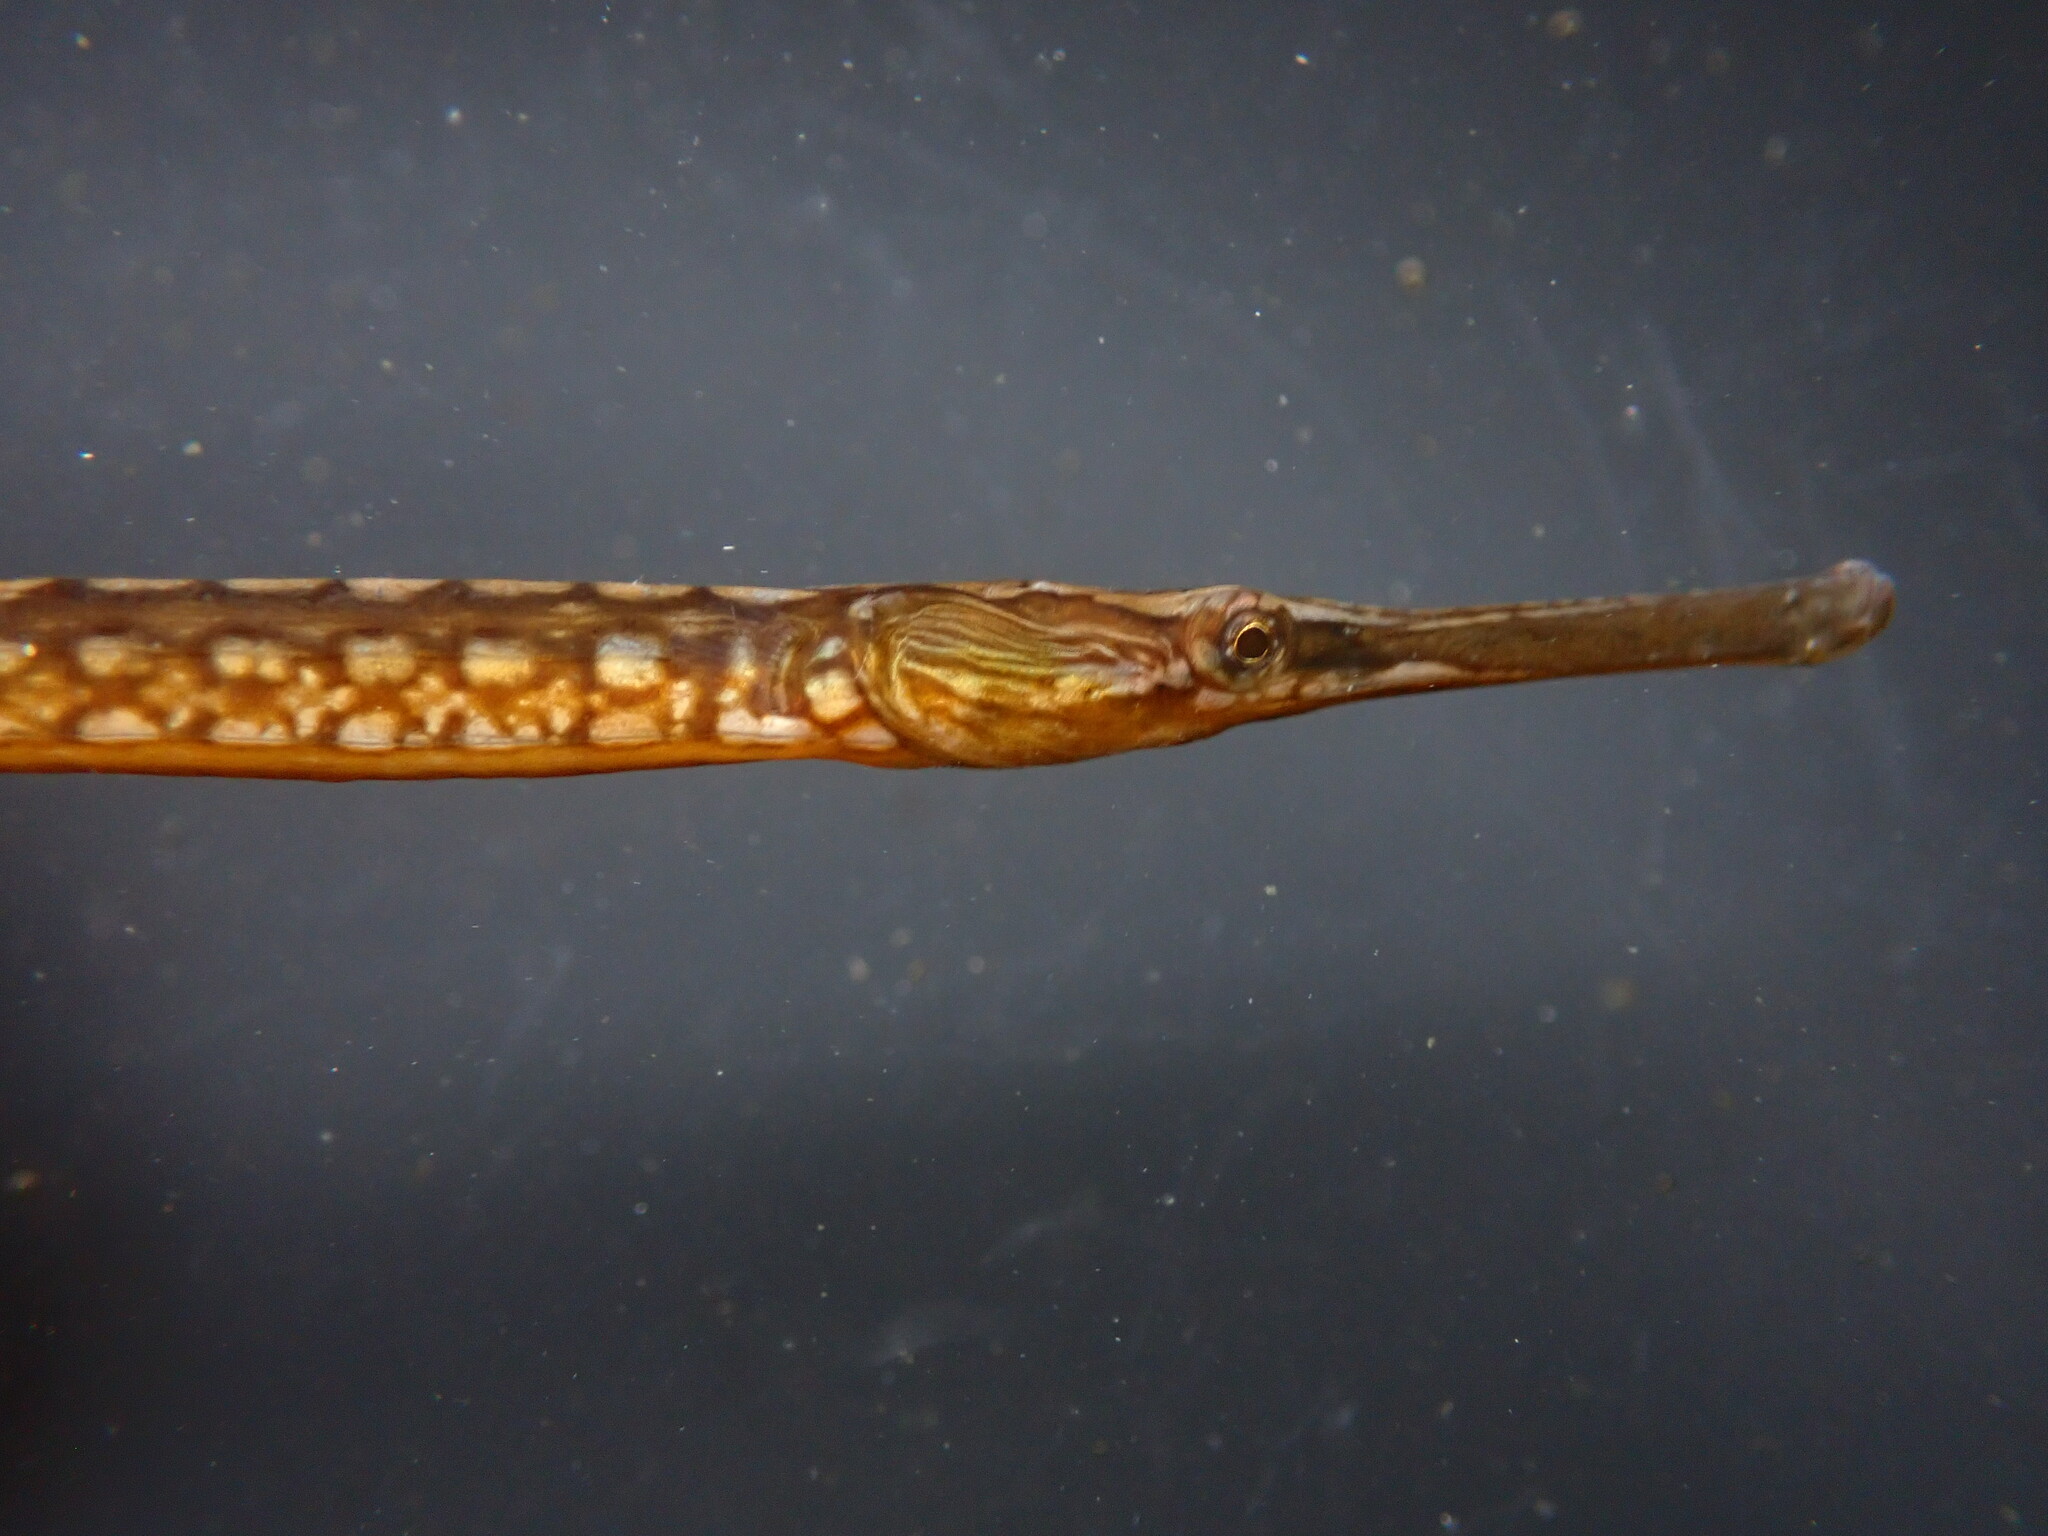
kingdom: Animalia
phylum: Chordata
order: Syngnathiformes
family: Syngnathidae
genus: Syngnathus
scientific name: Syngnathus californiensis
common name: Great pipefish
